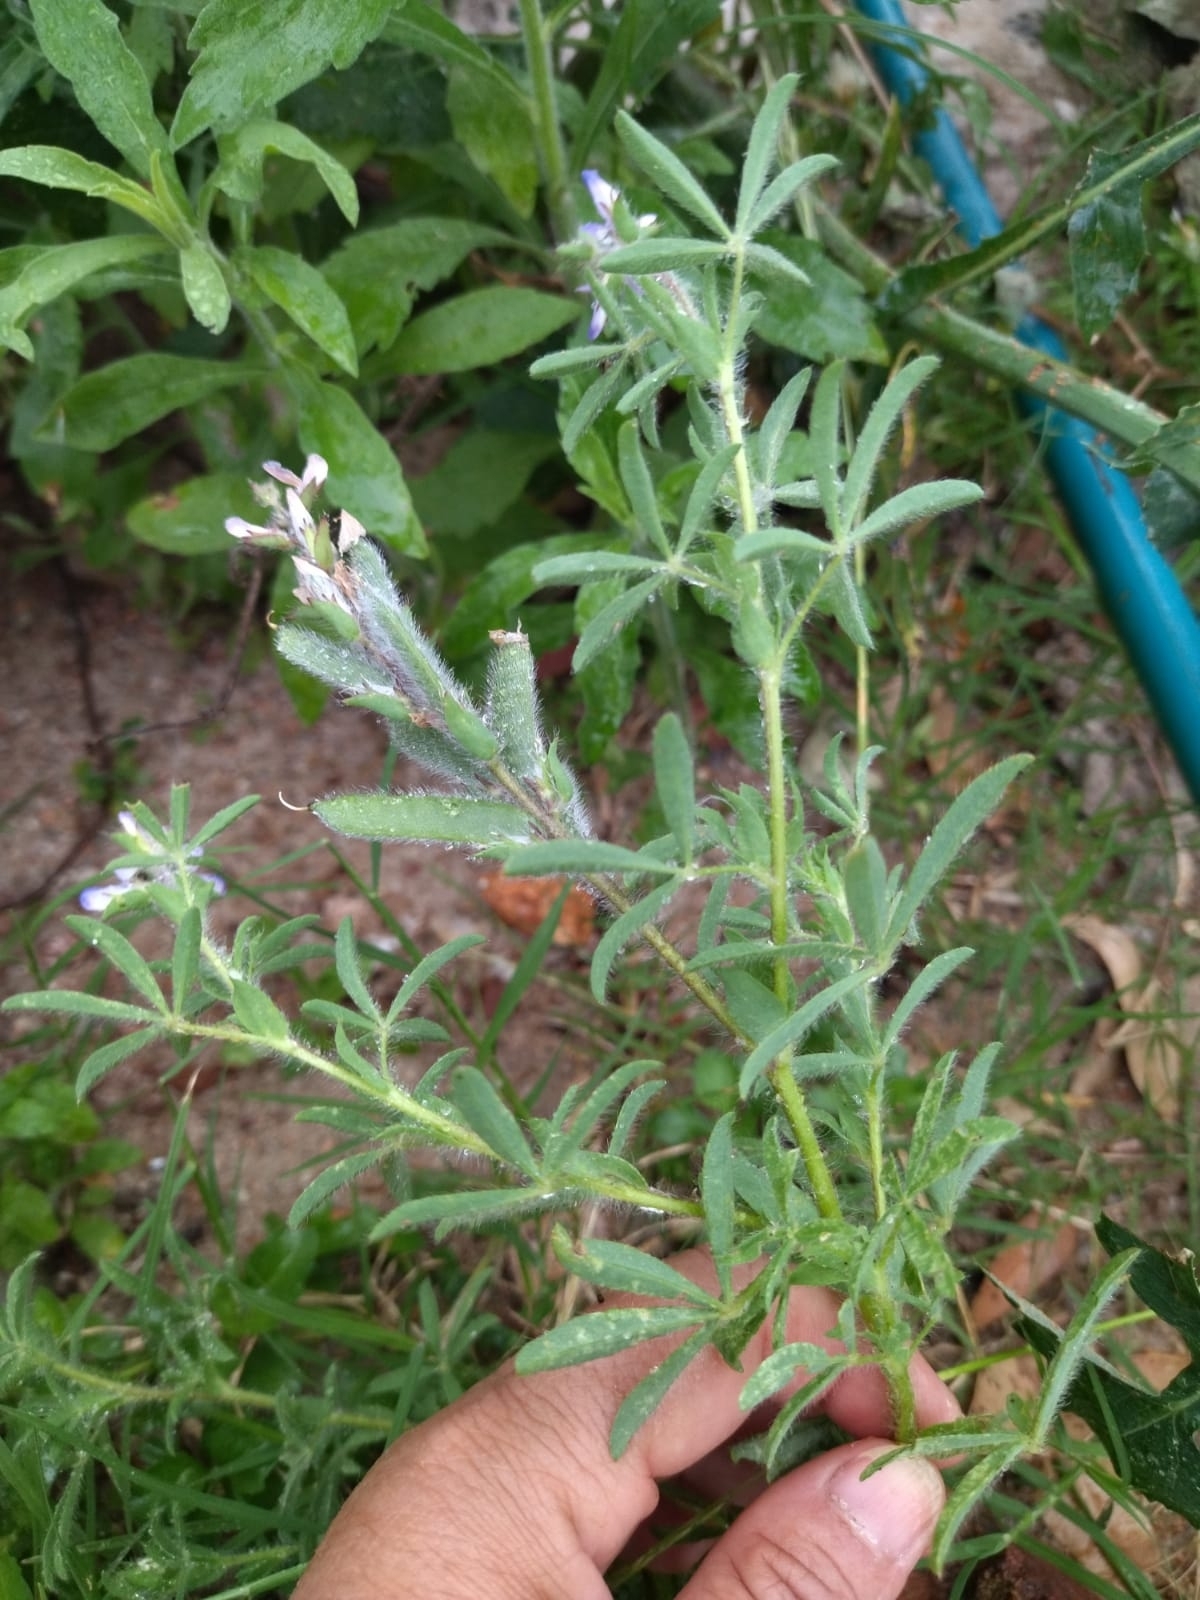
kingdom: Plantae
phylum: Tracheophyta
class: Magnoliopsida
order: Fabales
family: Fabaceae
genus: Lupinus
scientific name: Lupinus bracteolaris
